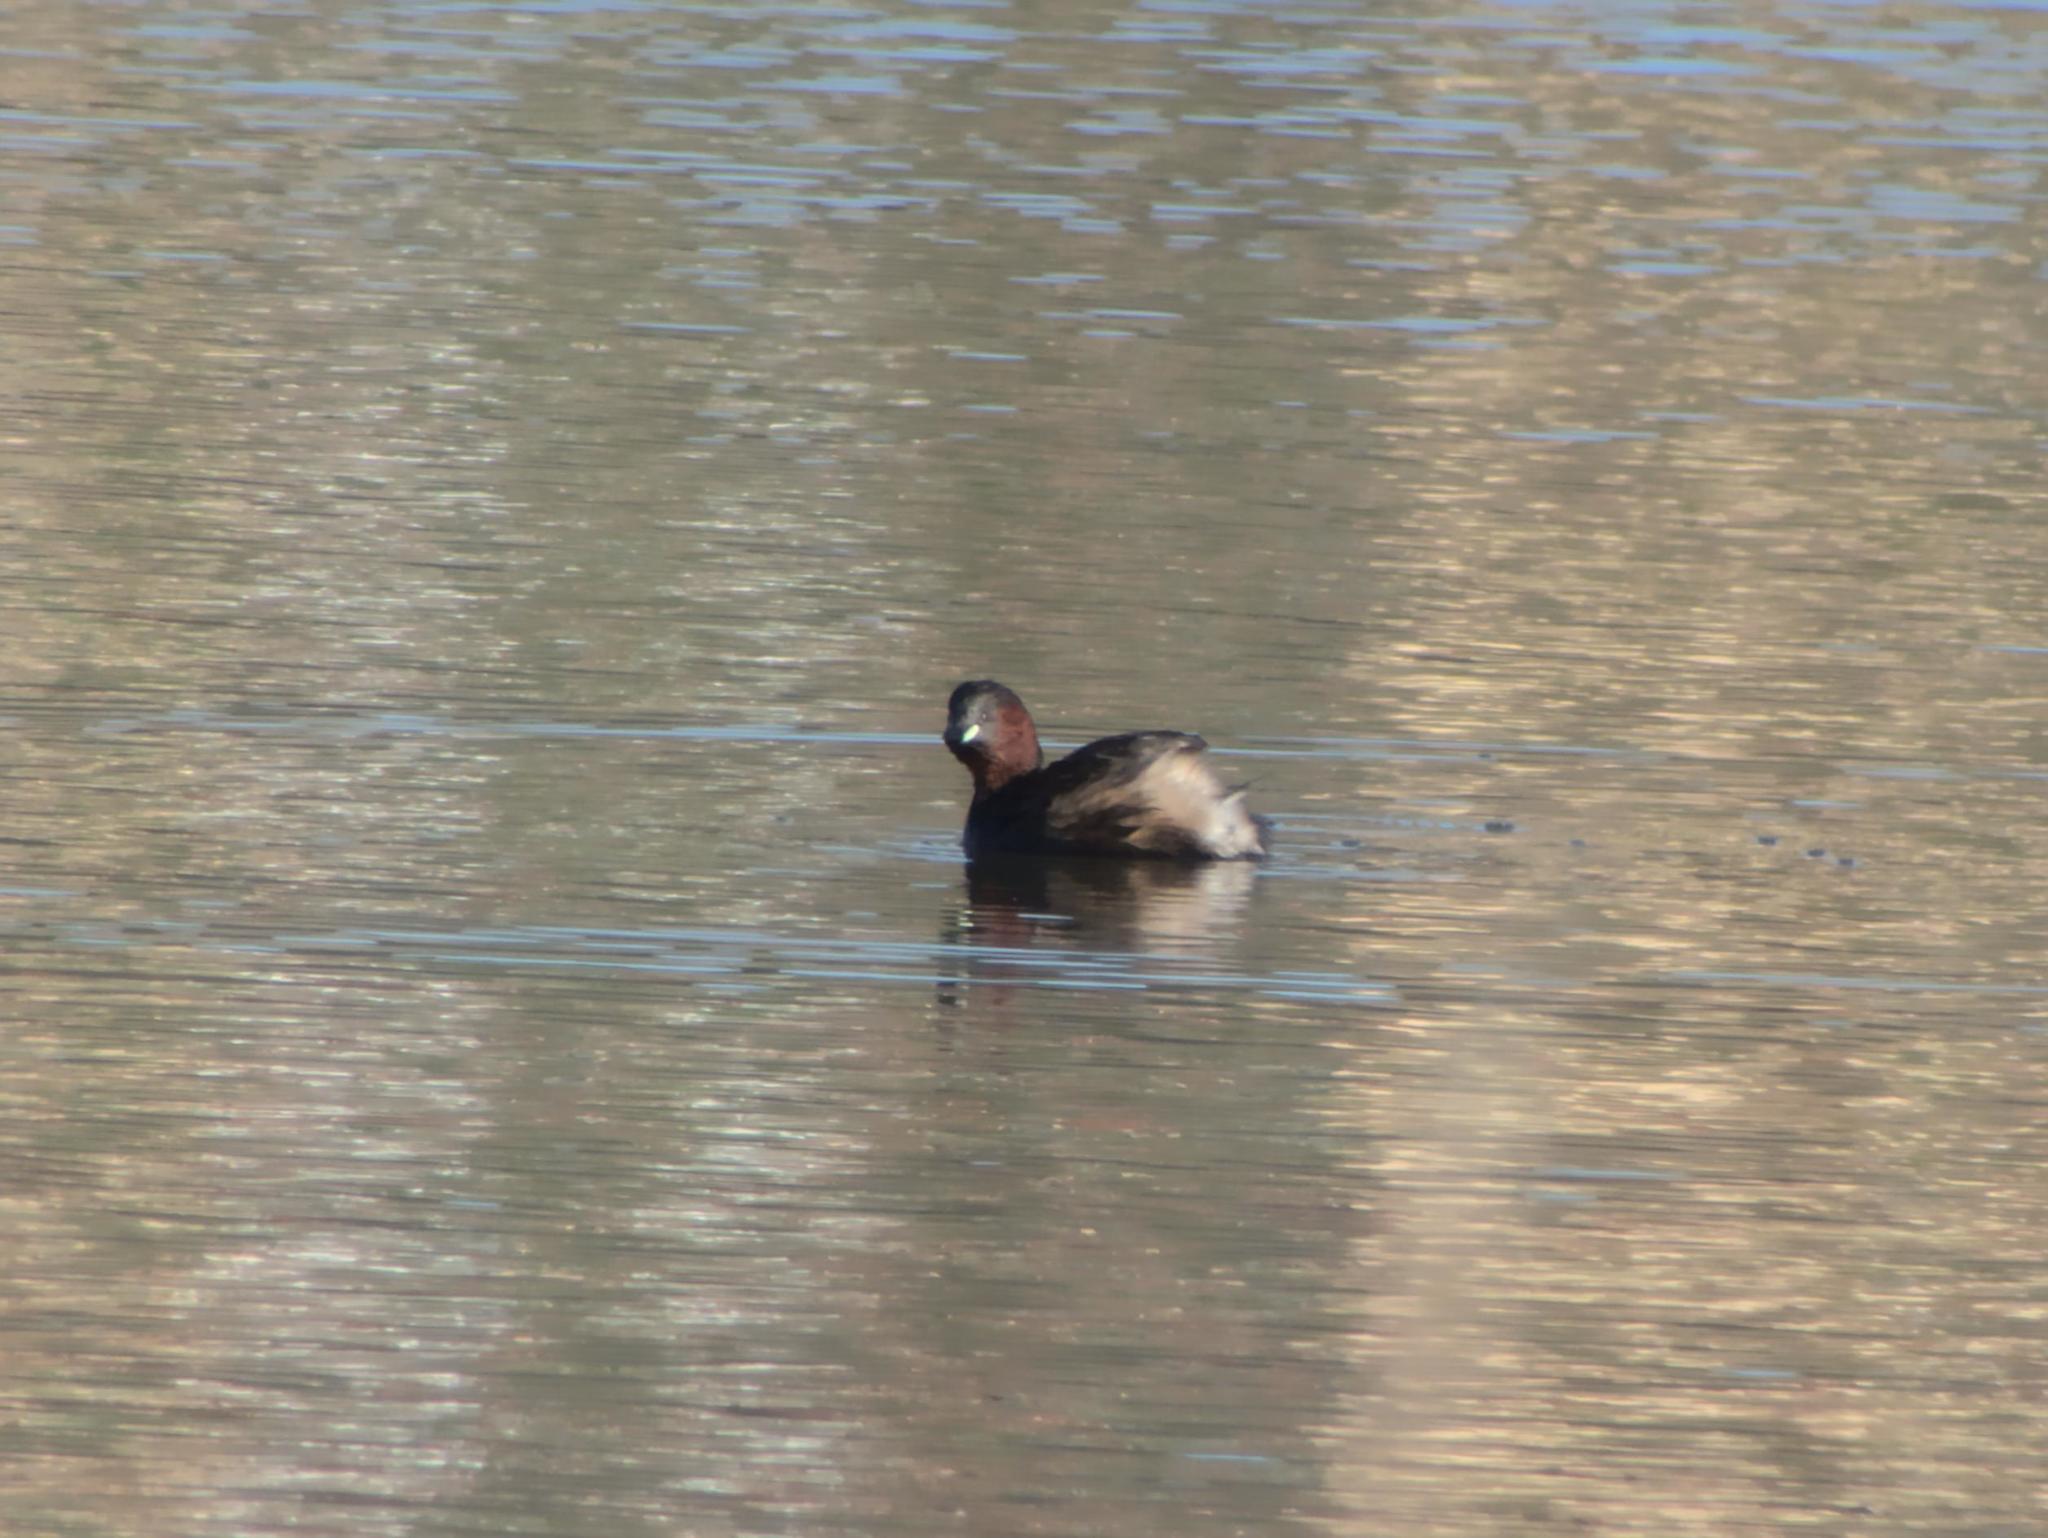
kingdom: Animalia
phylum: Chordata
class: Aves
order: Podicipediformes
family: Podicipedidae
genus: Tachybaptus
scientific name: Tachybaptus ruficollis
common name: Little grebe
